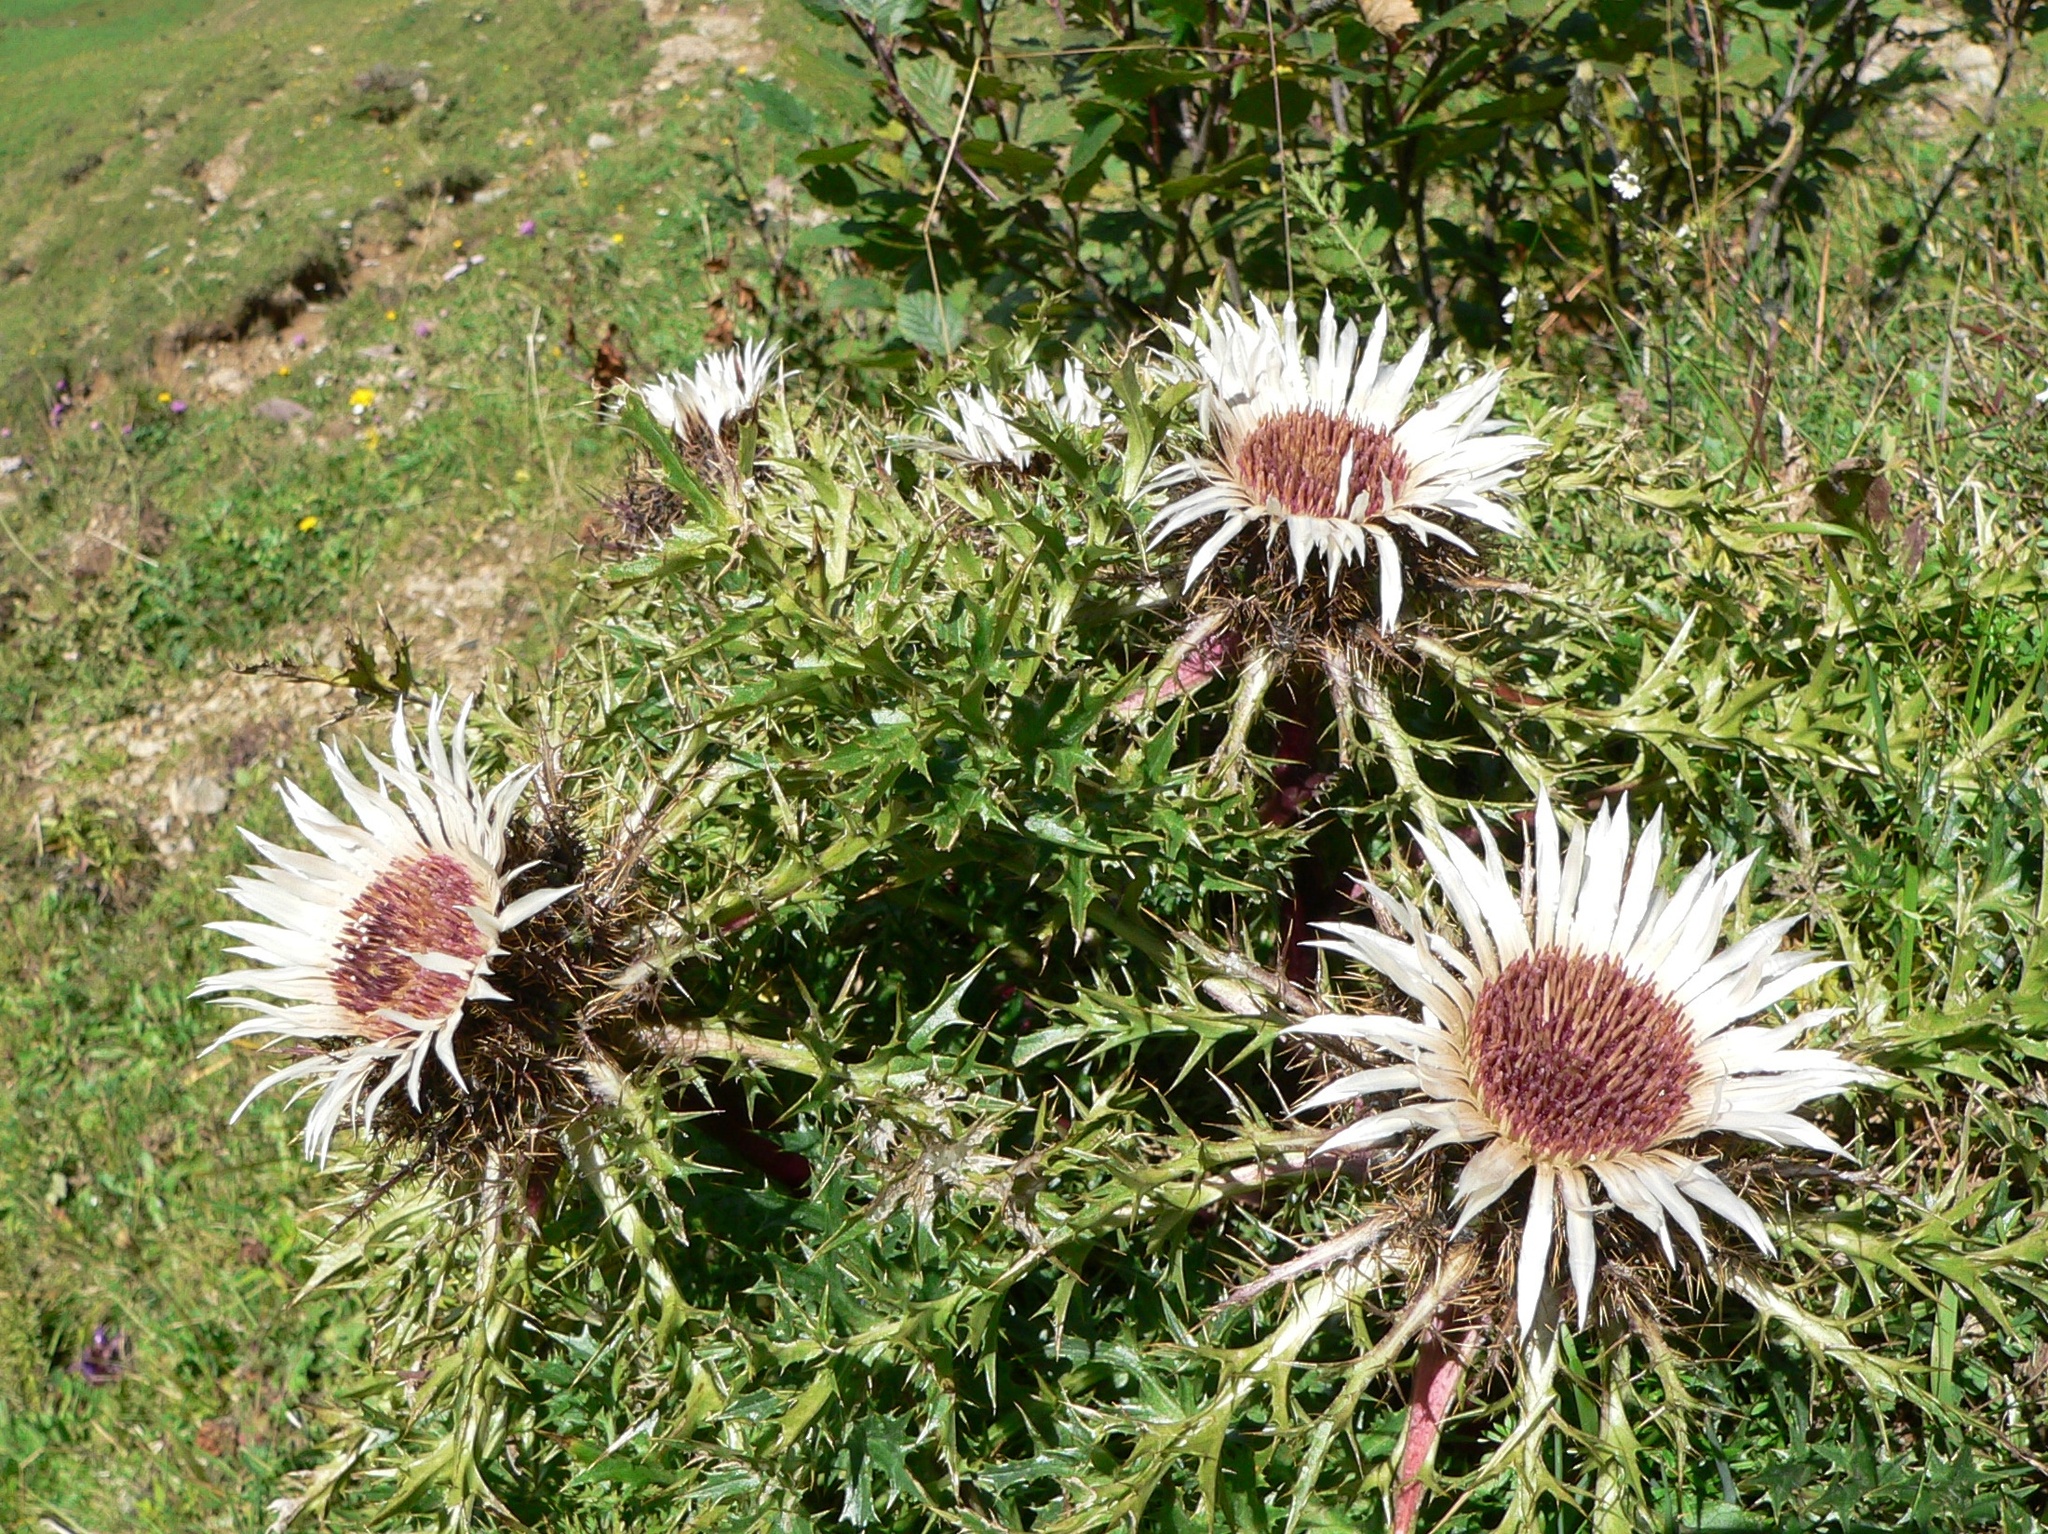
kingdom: Plantae
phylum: Tracheophyta
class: Magnoliopsida
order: Asterales
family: Asteraceae
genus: Carlina
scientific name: Carlina acaulis
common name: Stemless carline thistle
